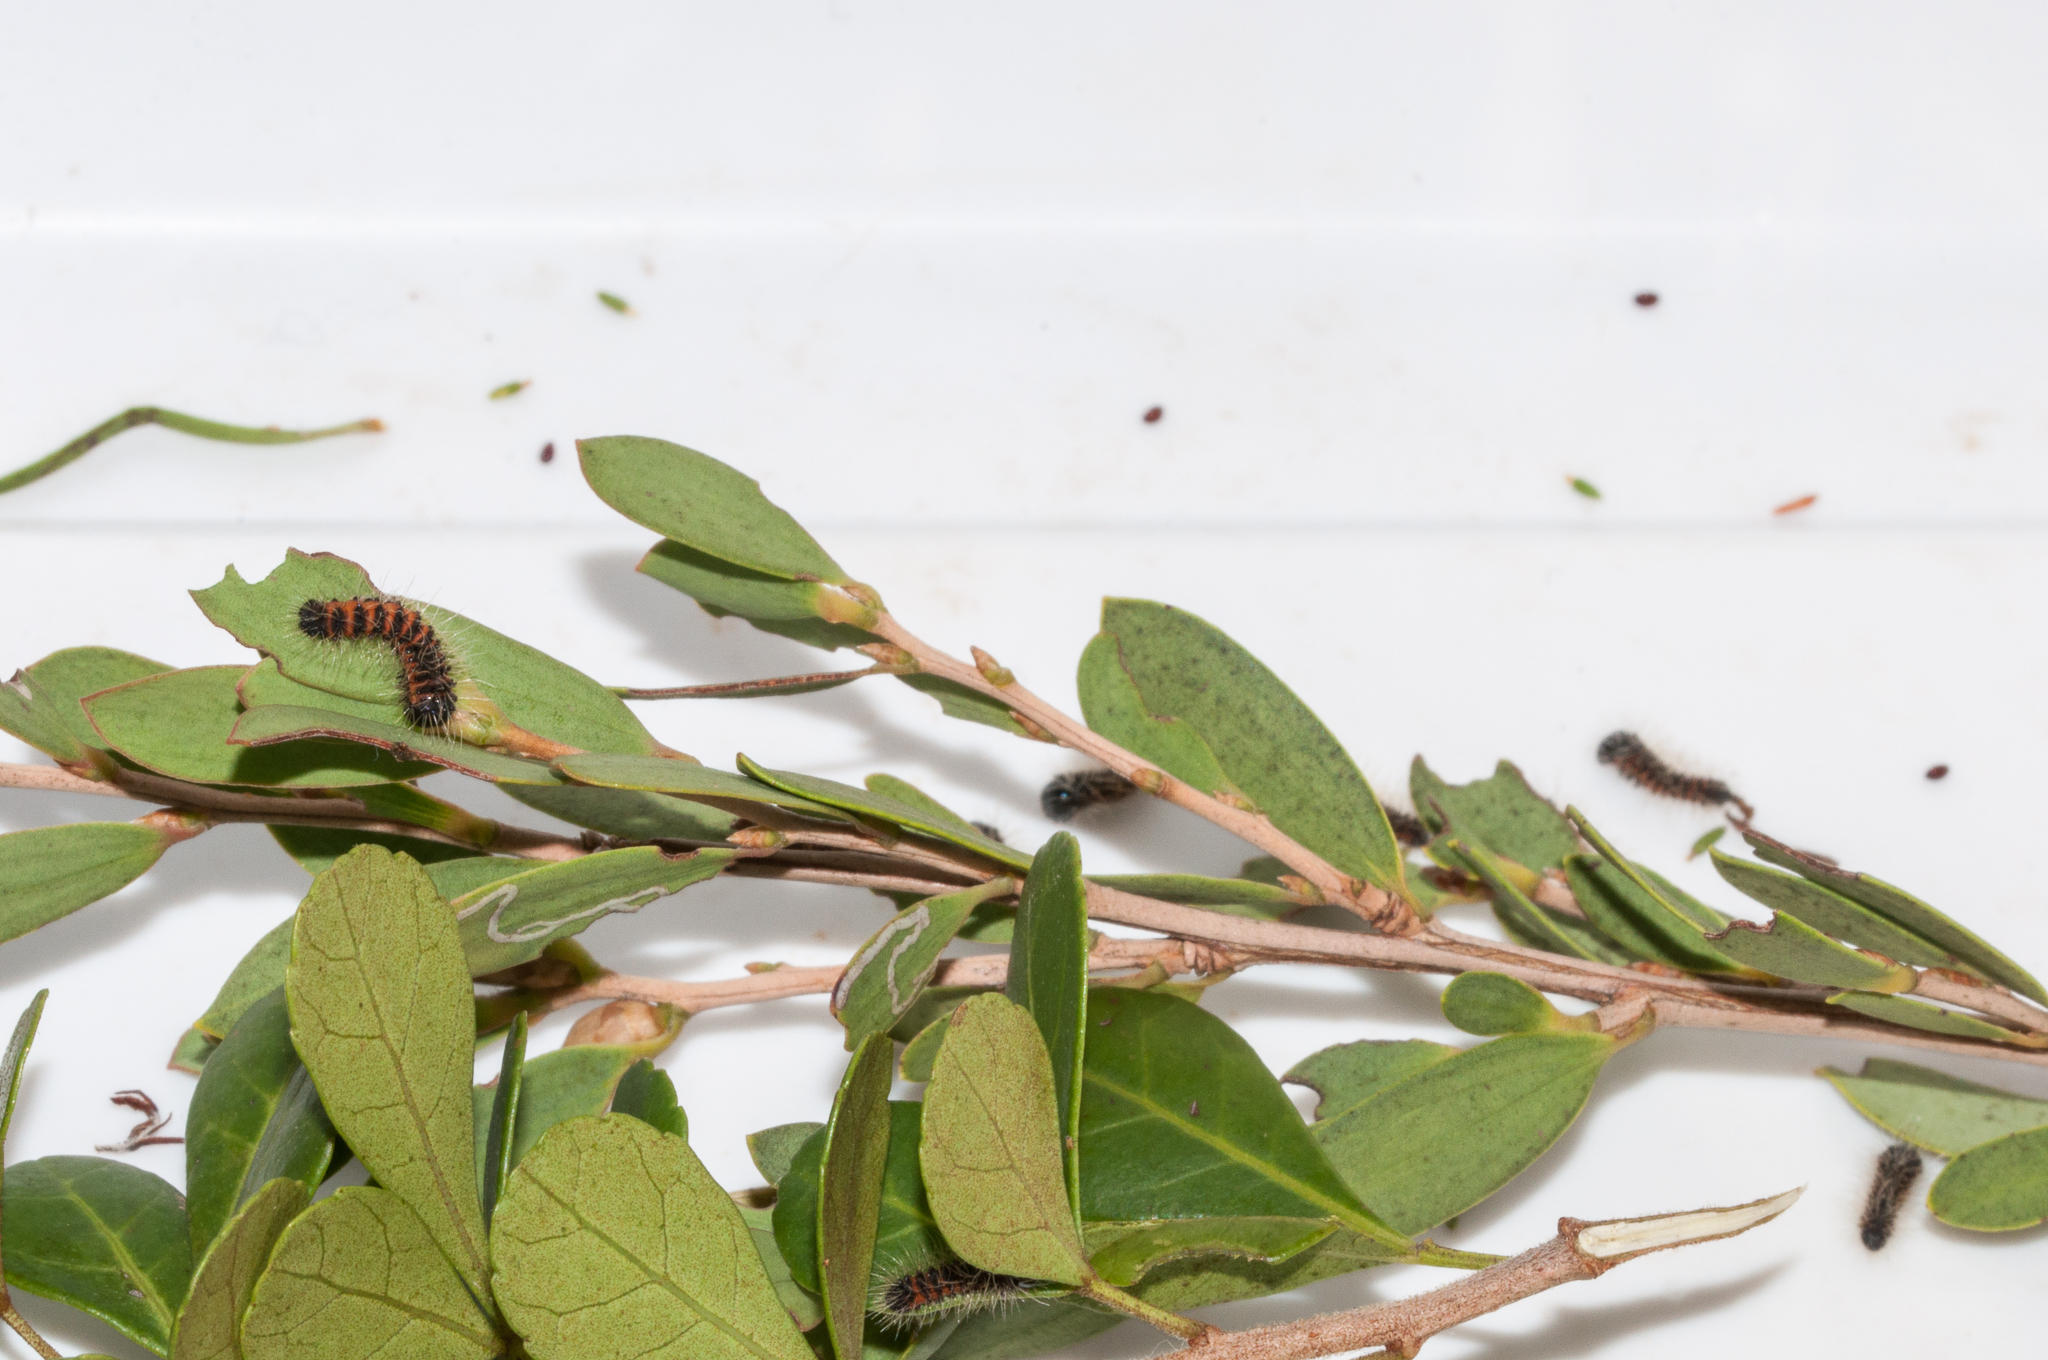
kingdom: Plantae
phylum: Tracheophyta
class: Magnoliopsida
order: Myrtales
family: Myrtaceae
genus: Leptospermum
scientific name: Leptospermum laevigatum
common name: Australian teatree
